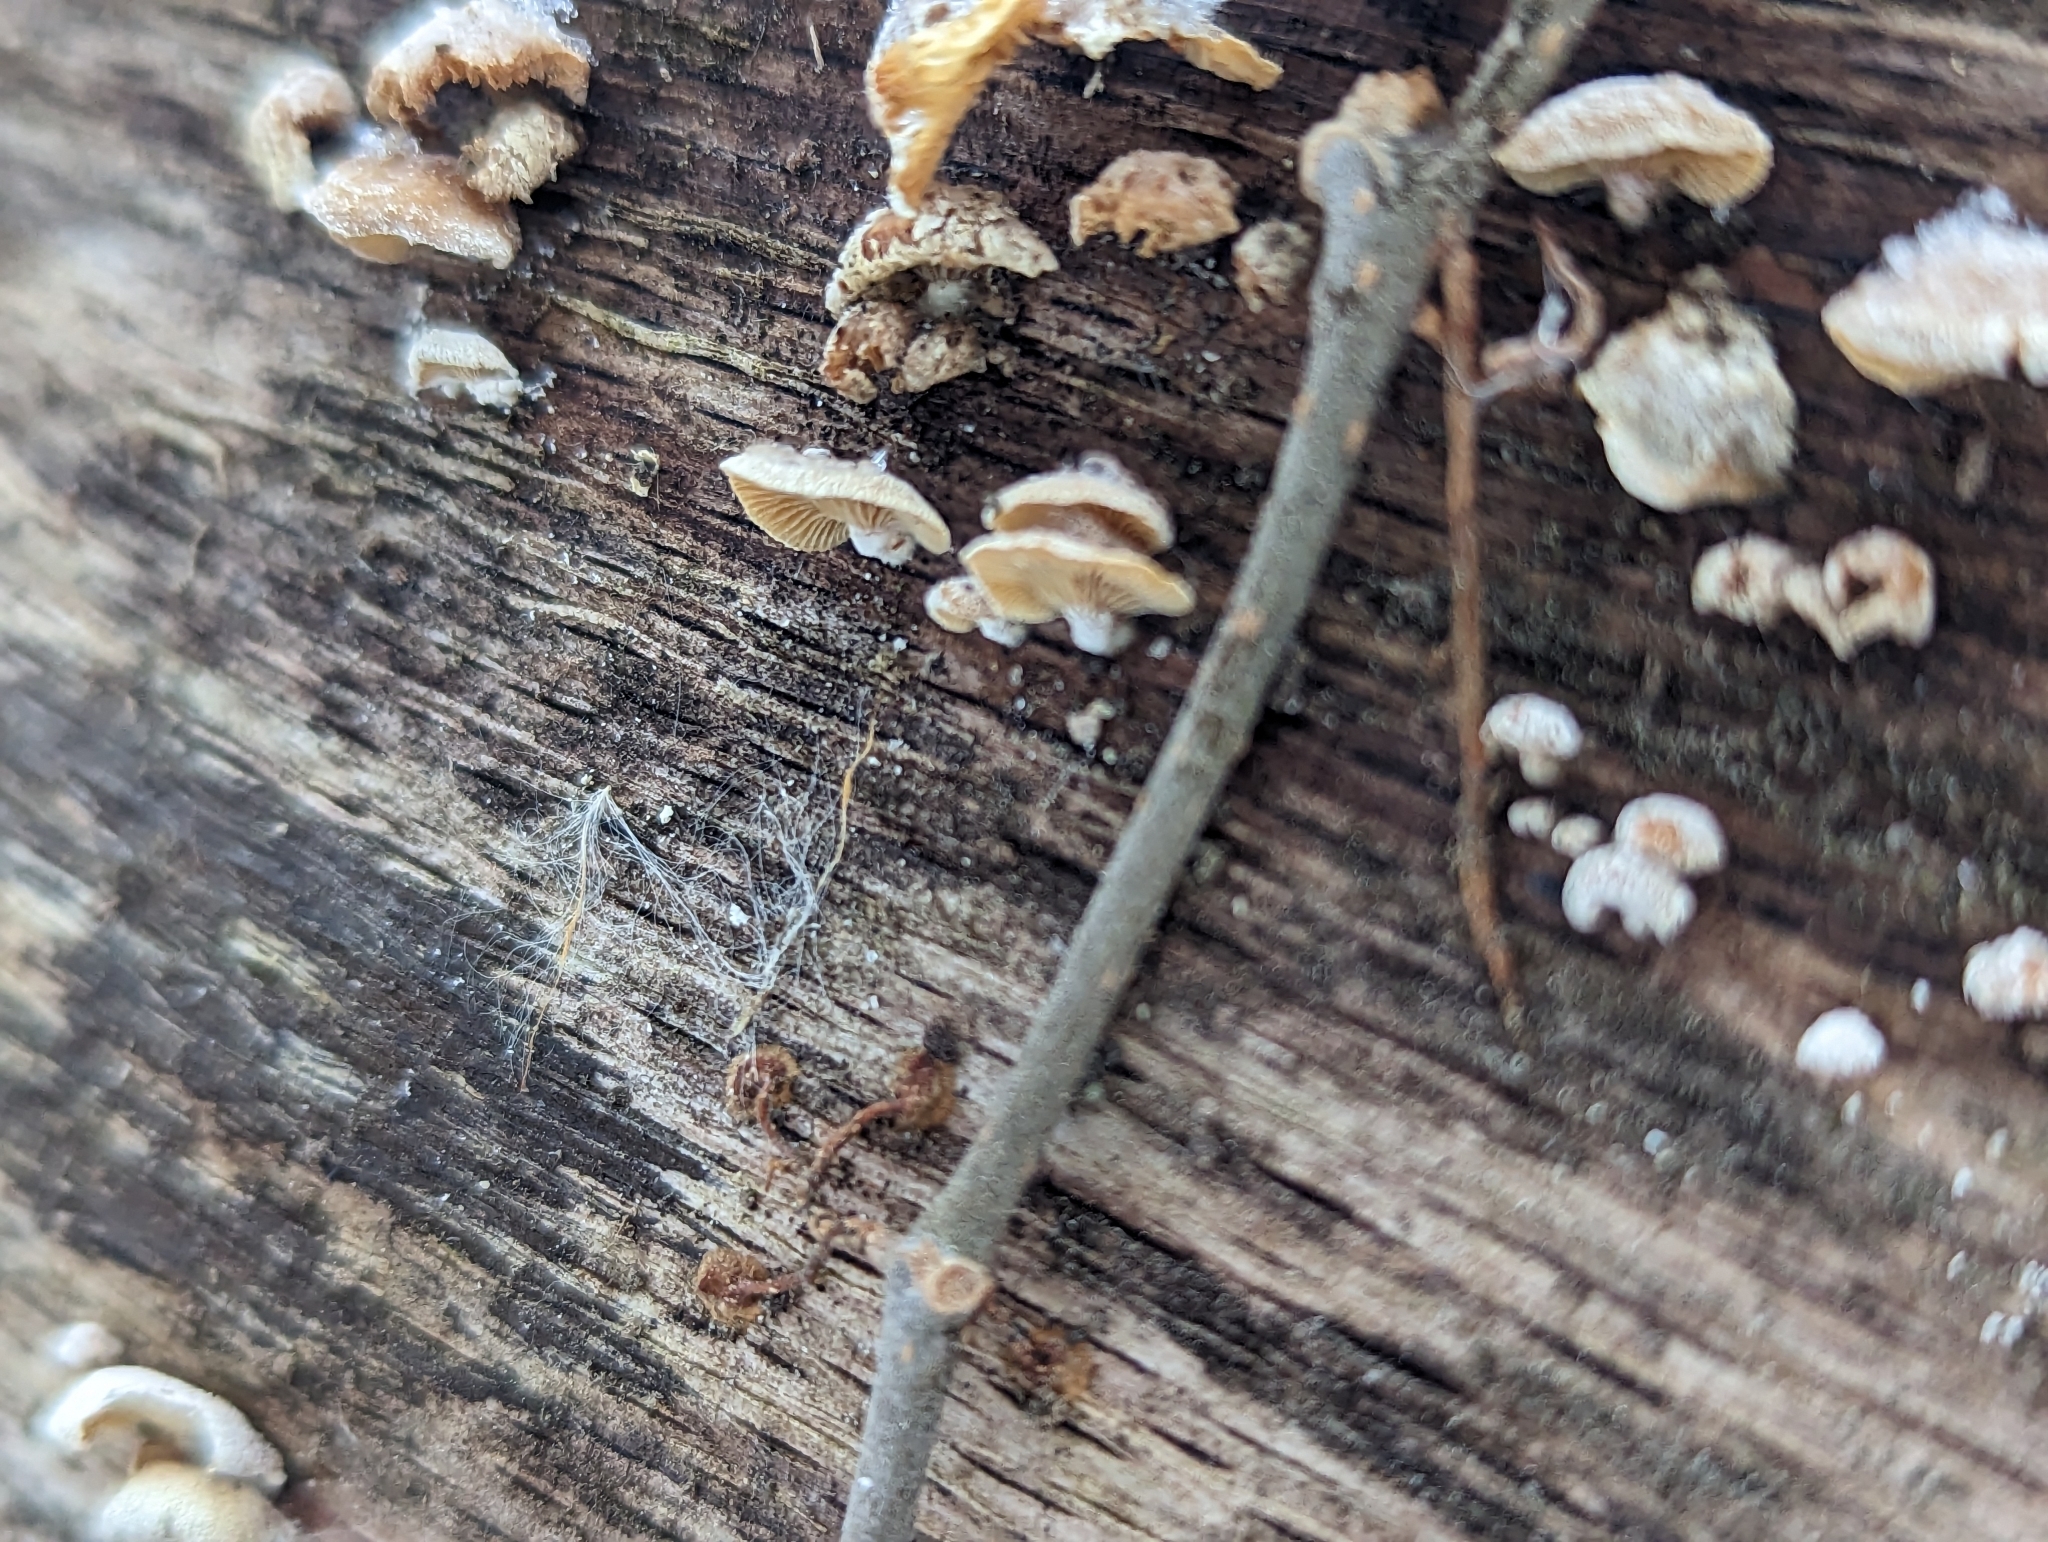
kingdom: Fungi
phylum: Basidiomycota
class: Agaricomycetes
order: Agaricales
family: Mycenaceae
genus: Panellus
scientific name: Panellus stipticus
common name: Bitter oysterling
